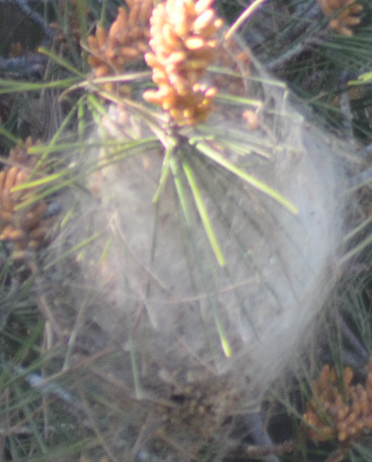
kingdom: Animalia
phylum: Arthropoda
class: Insecta
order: Lepidoptera
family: Notodontidae
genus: Thaumetopoea
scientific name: Thaumetopoea pityocampa
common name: Pine processionary
